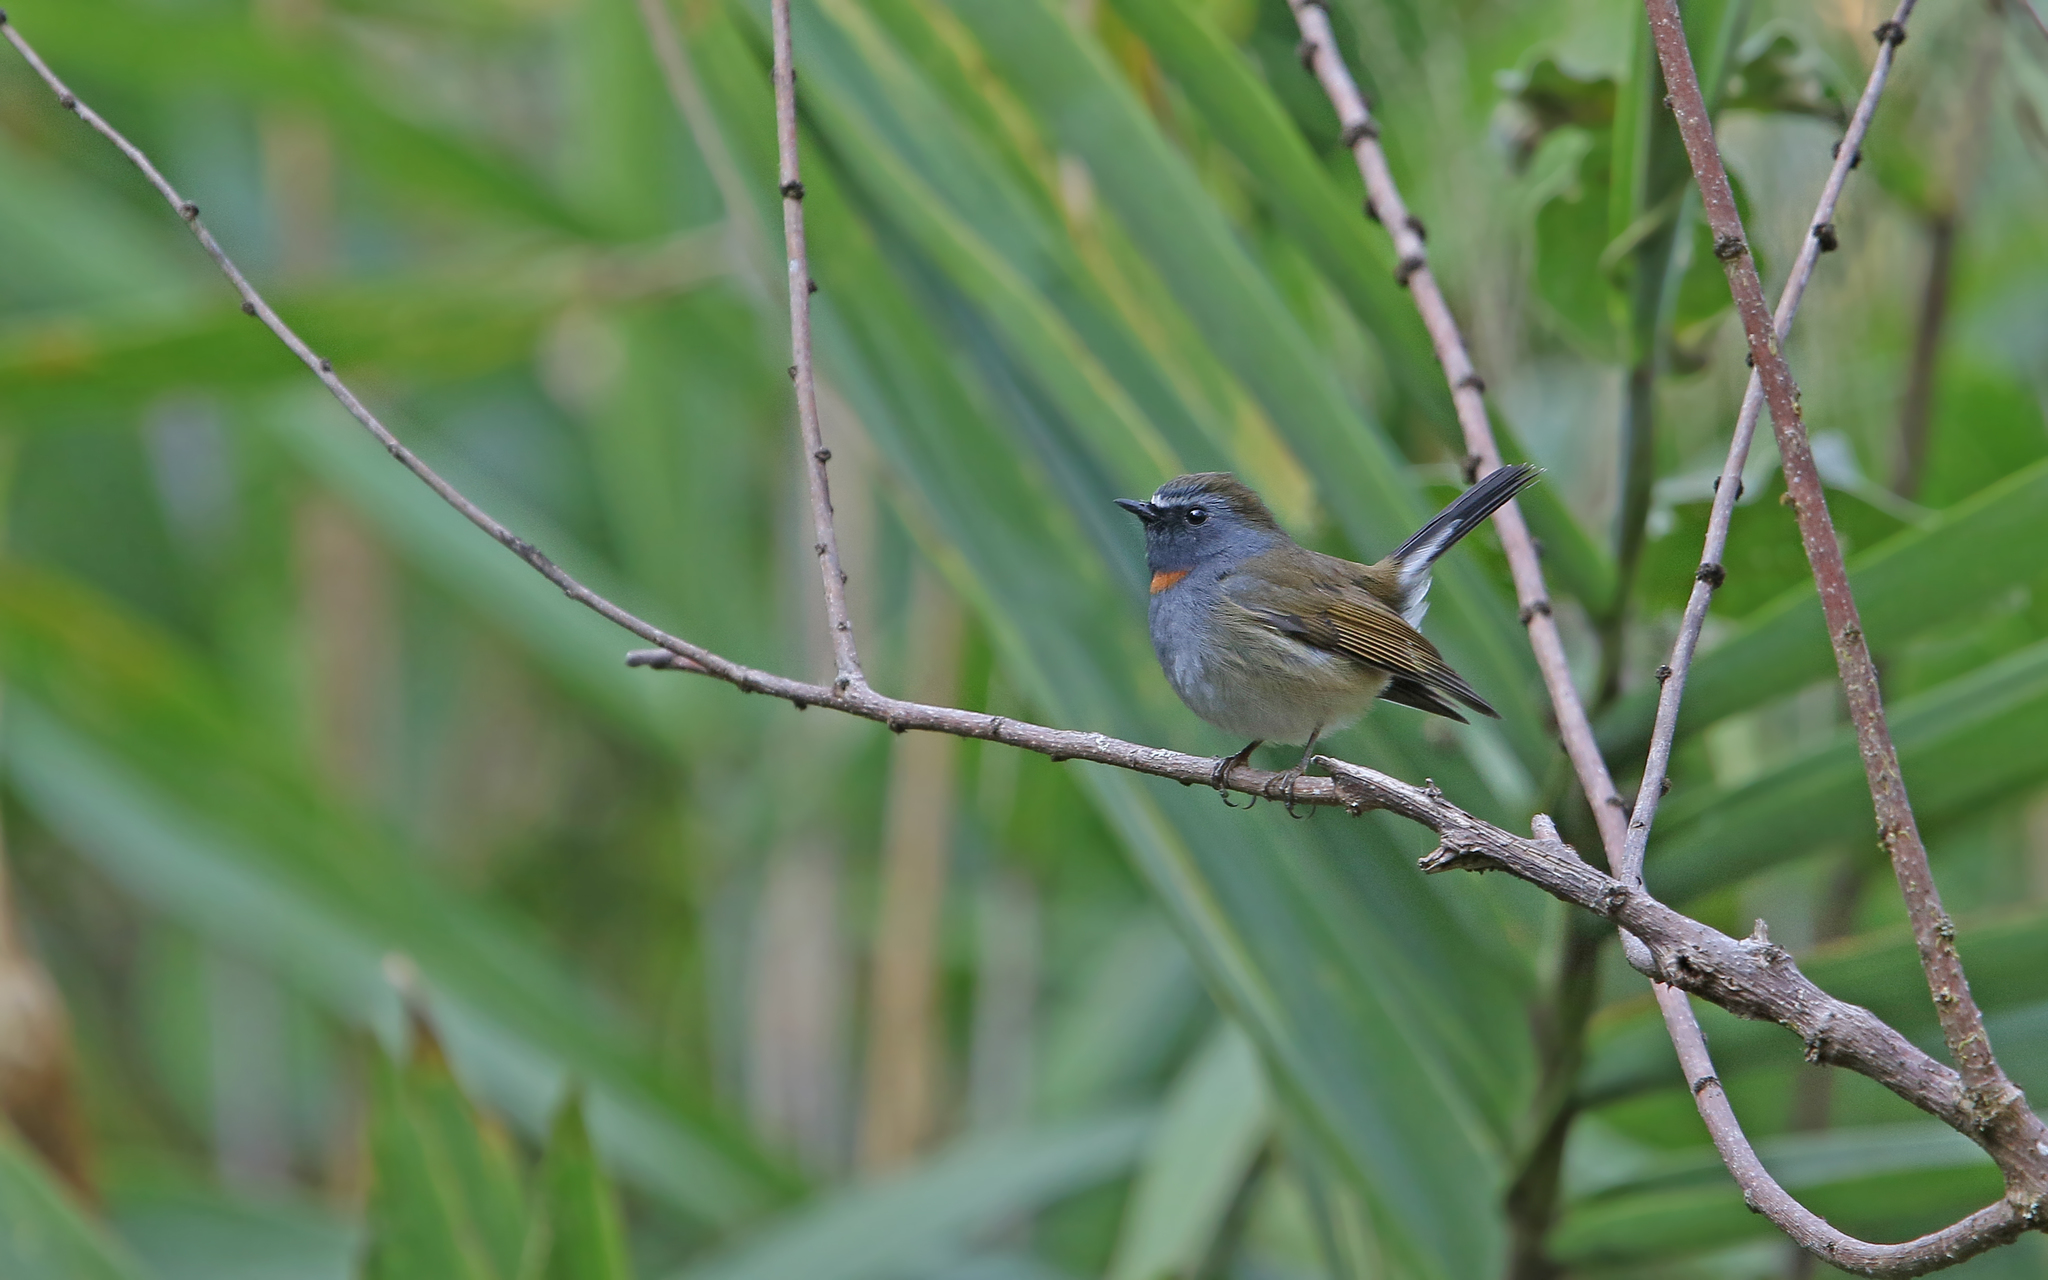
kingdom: Animalia
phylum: Chordata
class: Aves
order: Passeriformes
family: Muscicapidae
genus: Ficedula
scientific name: Ficedula strophiata
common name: Rufous-gorgeted flycatcher
